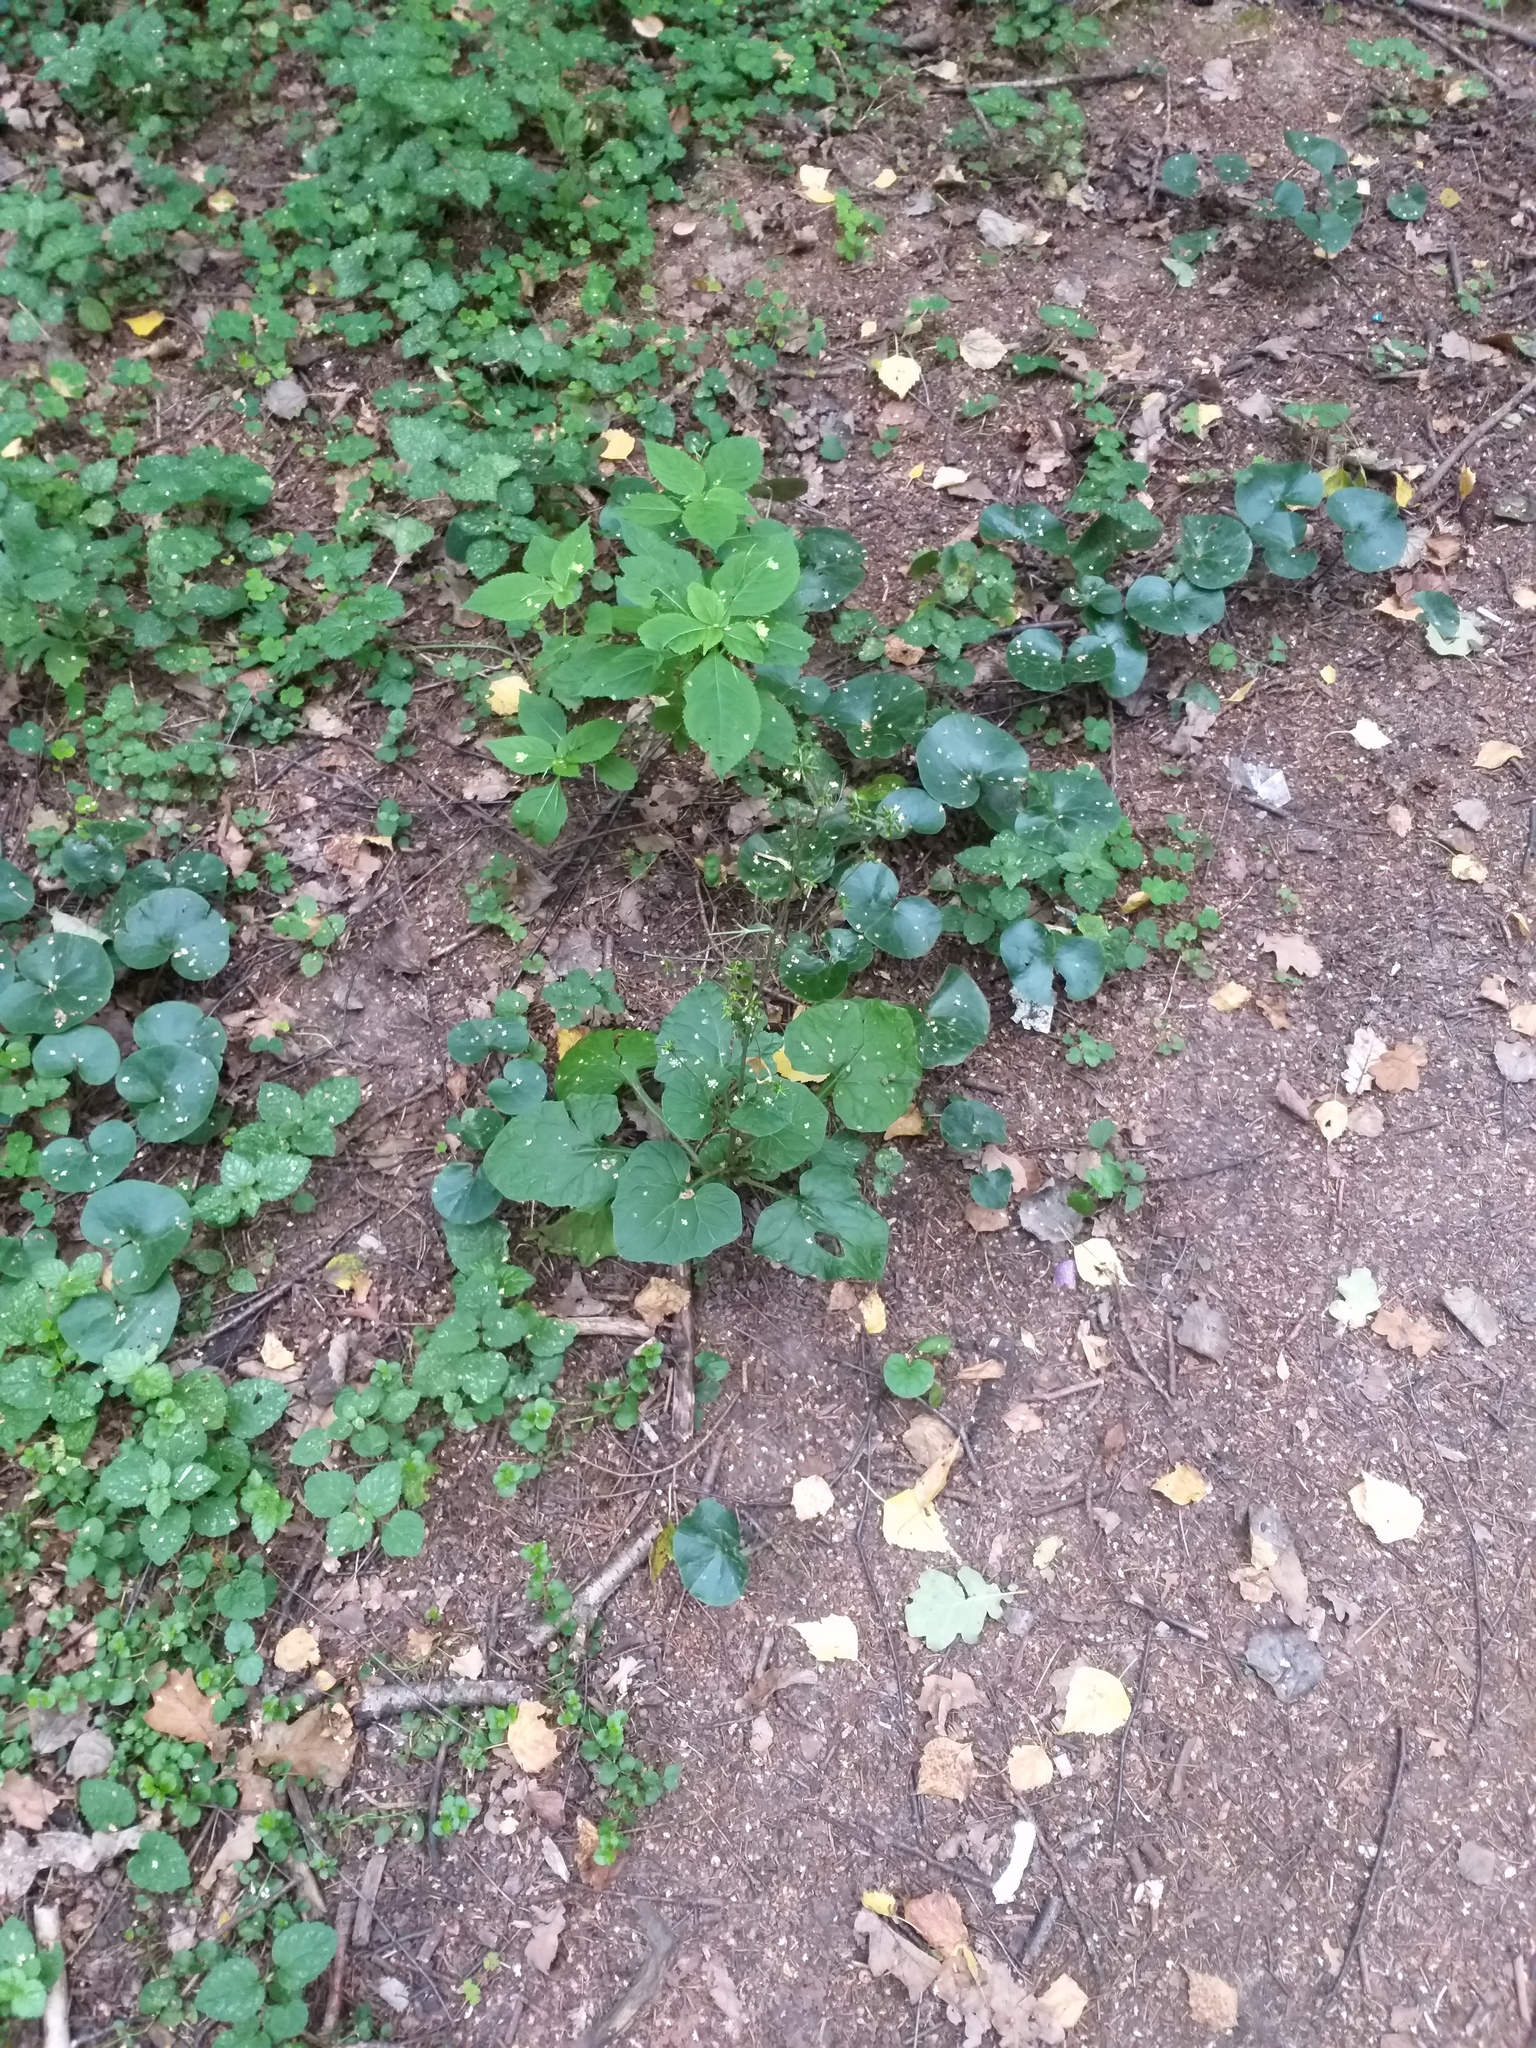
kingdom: Plantae
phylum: Tracheophyta
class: Magnoliopsida
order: Asterales
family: Asteraceae
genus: Adenocaulon
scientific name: Adenocaulon himalaicum
